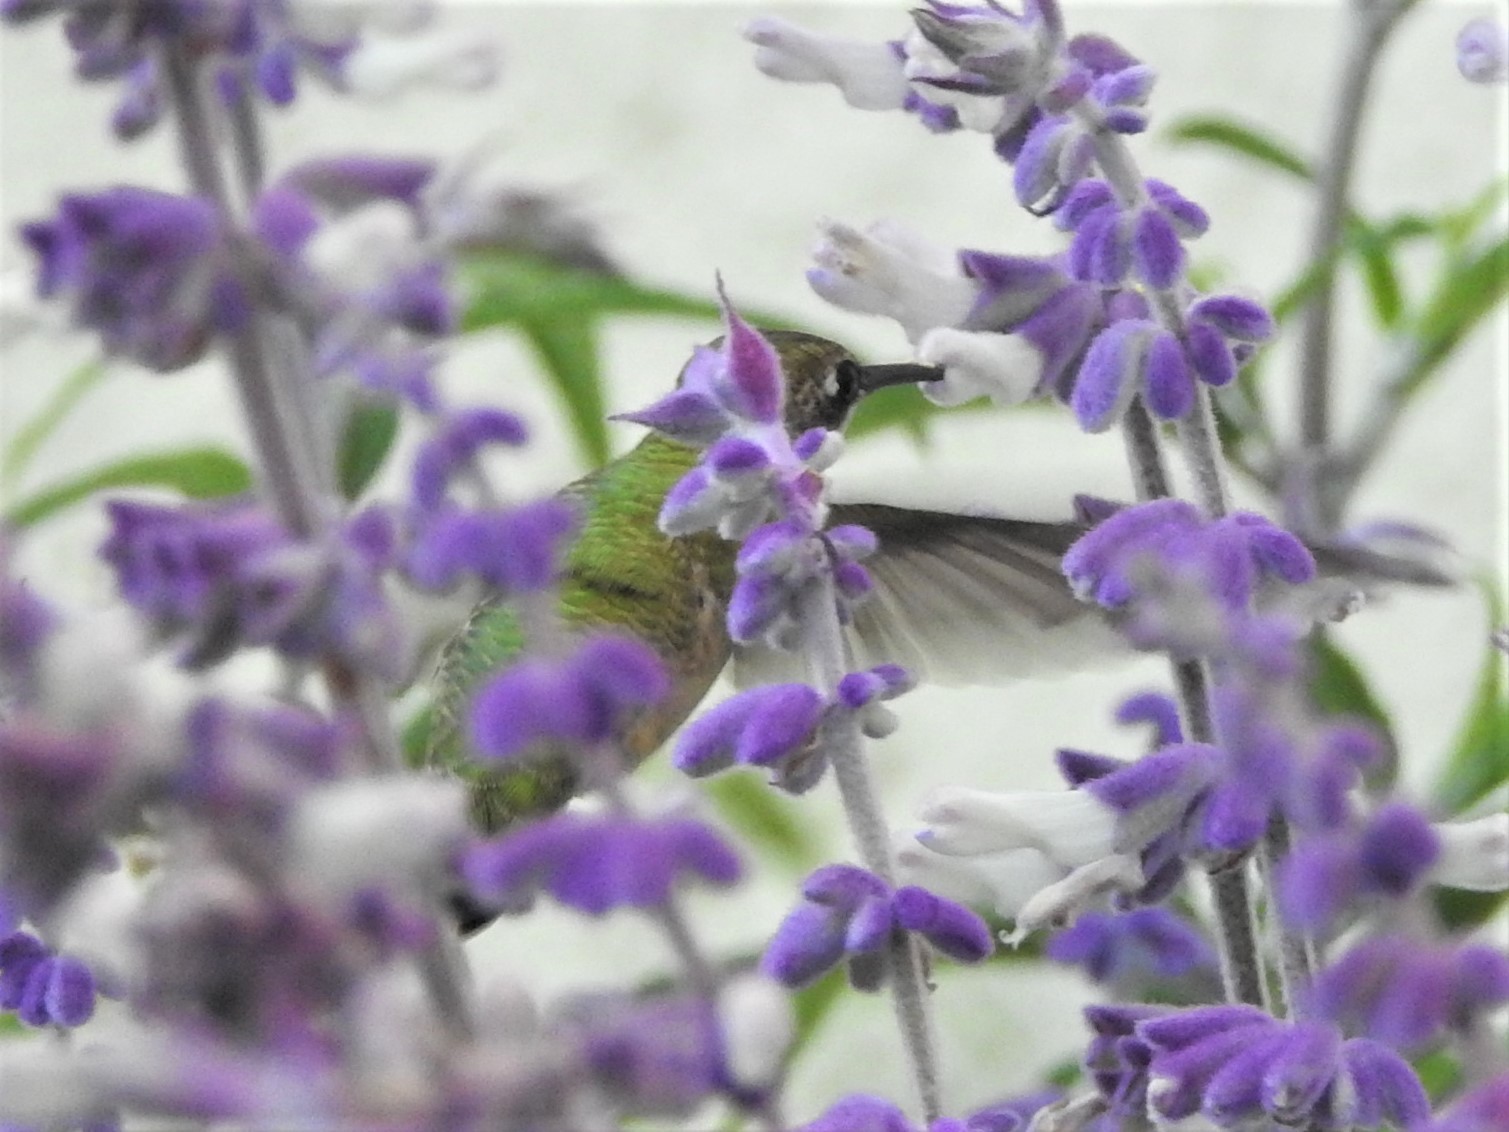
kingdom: Animalia
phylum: Chordata
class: Aves
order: Apodiformes
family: Trochilidae
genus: Archilochus
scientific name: Archilochus colubris
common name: Ruby-throated hummingbird
